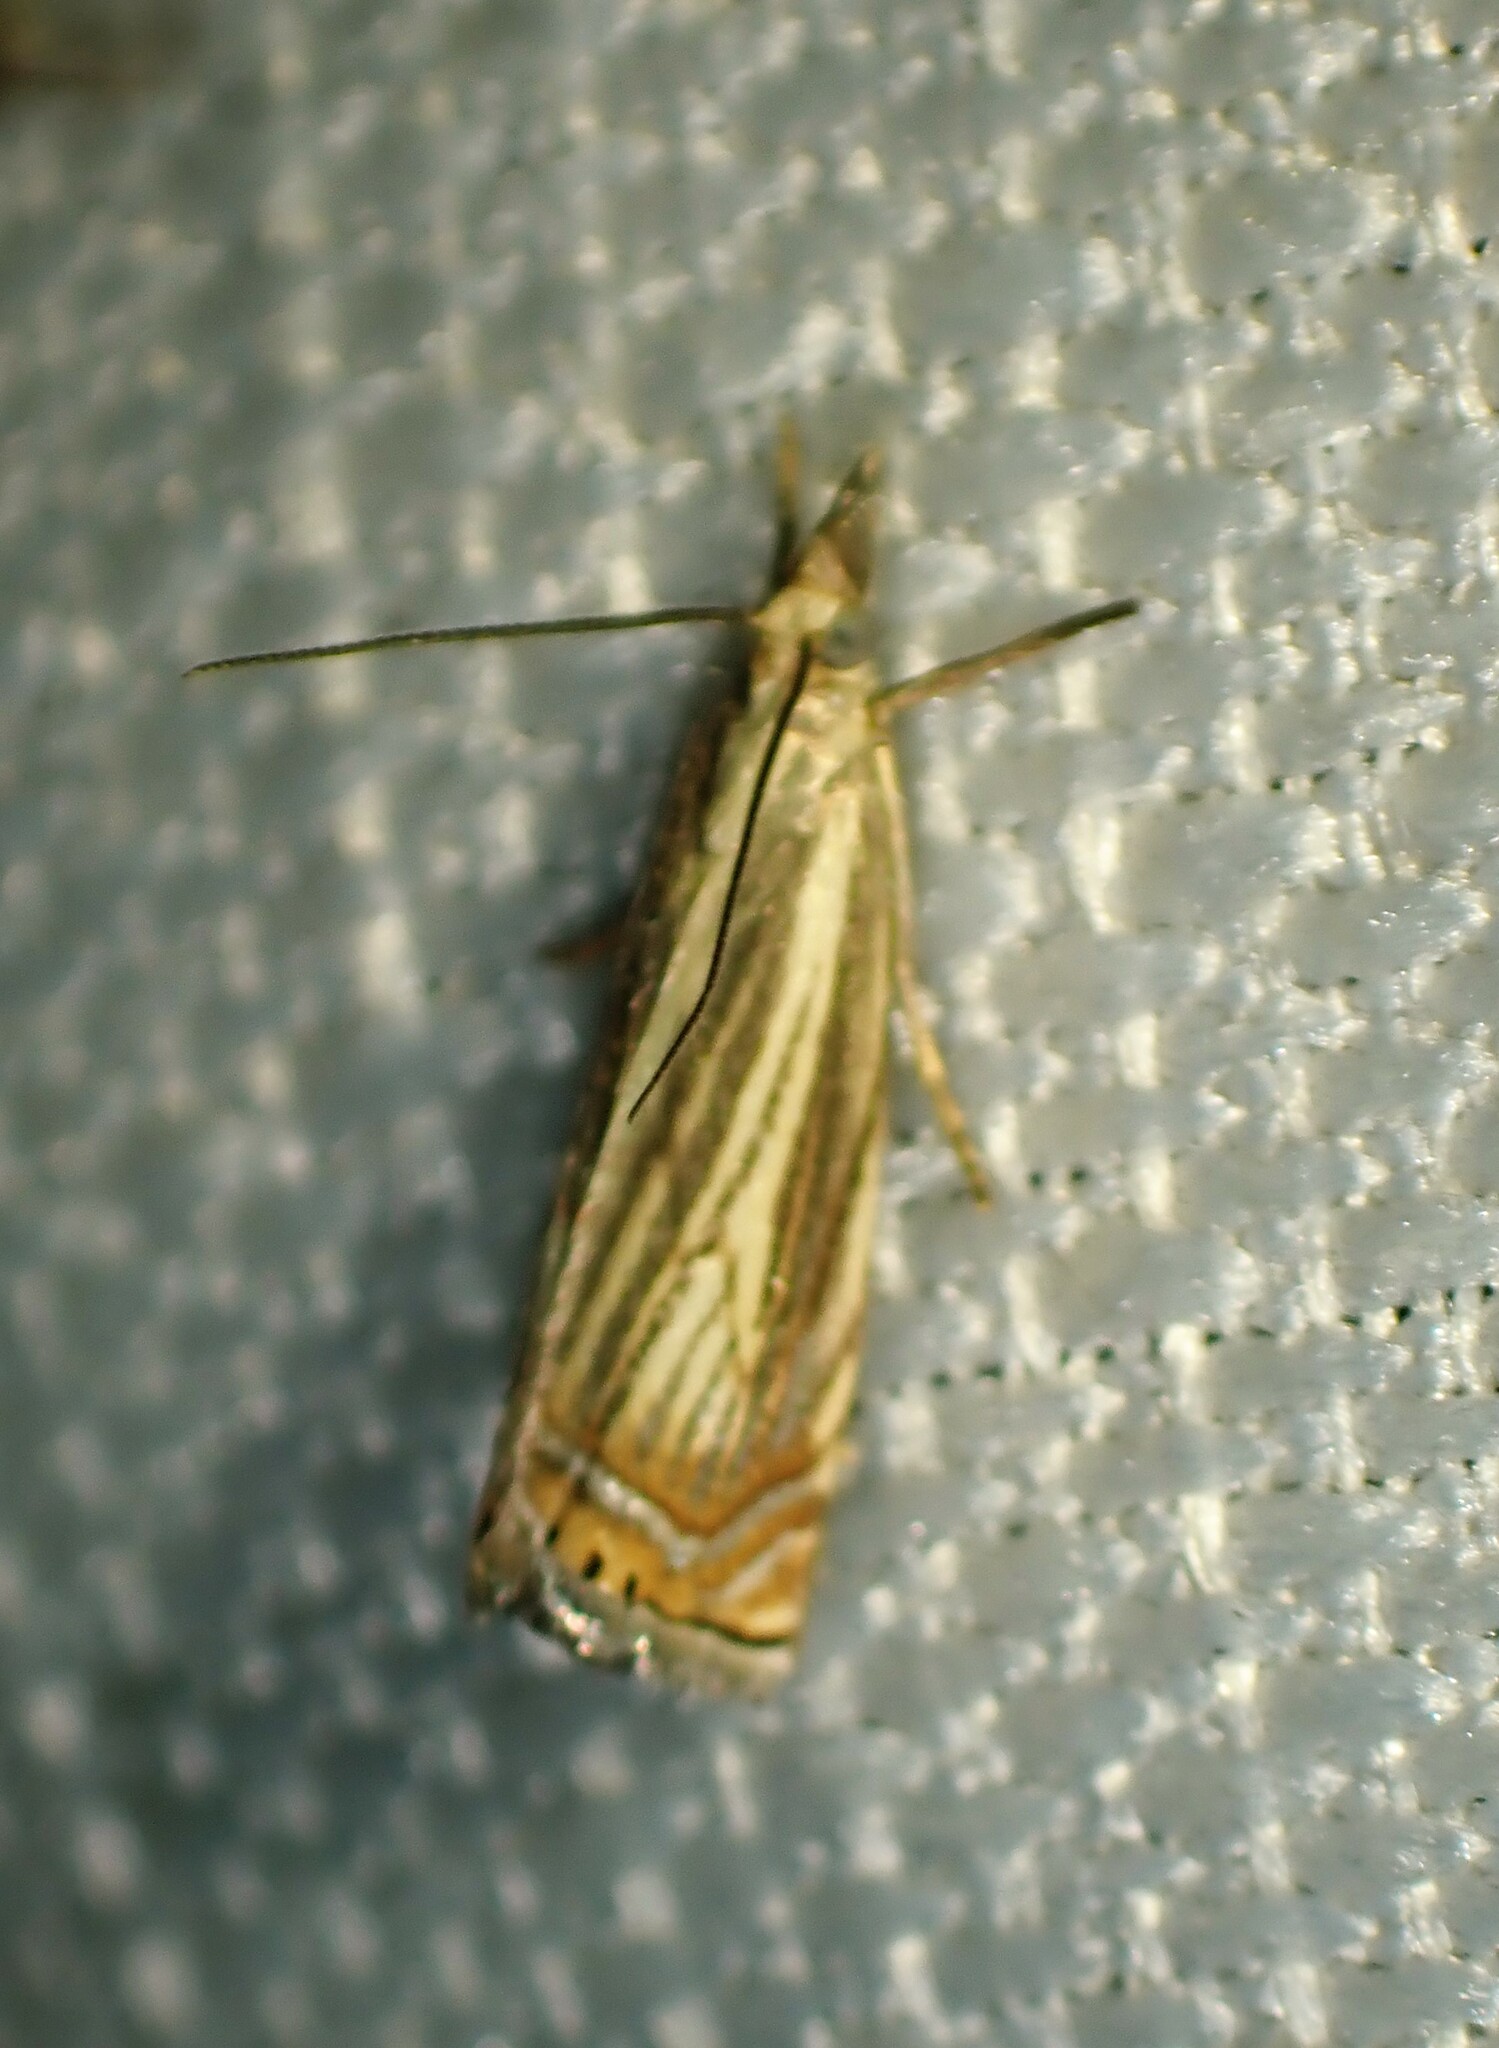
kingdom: Animalia
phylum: Arthropoda
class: Insecta
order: Lepidoptera
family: Crambidae
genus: Chrysoteuchia
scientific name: Chrysoteuchia topiarius
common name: Topiary grass-veneer
